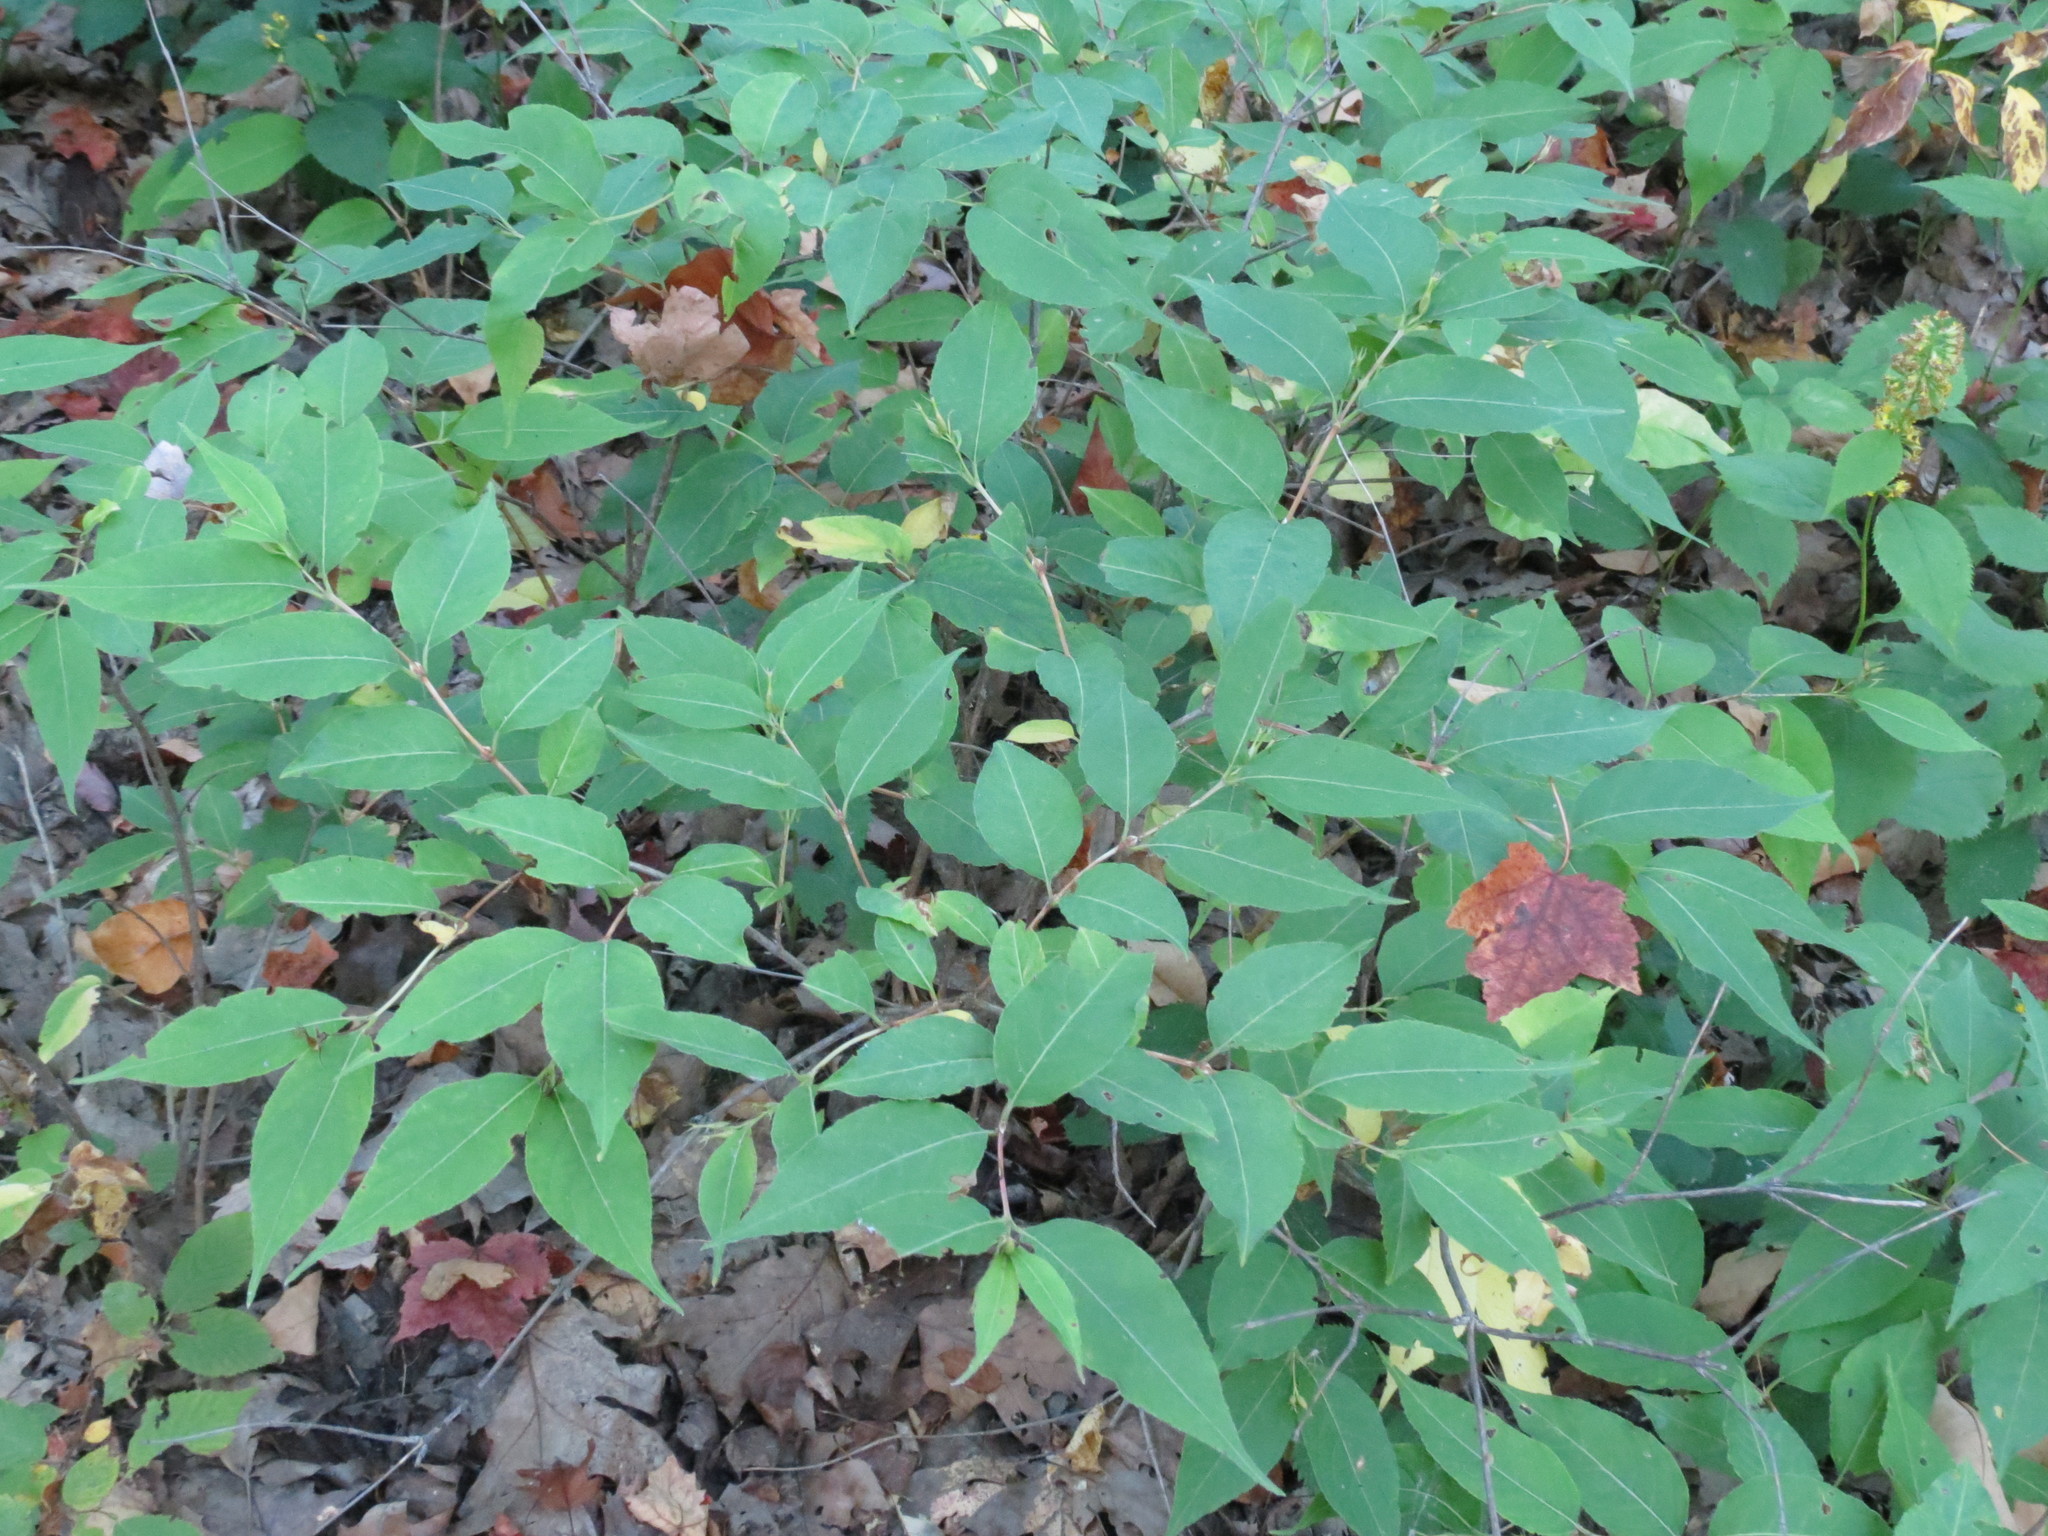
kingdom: Plantae
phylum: Tracheophyta
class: Magnoliopsida
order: Dipsacales
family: Caprifoliaceae
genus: Diervilla
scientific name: Diervilla lonicera
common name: Bush-honeysuckle
